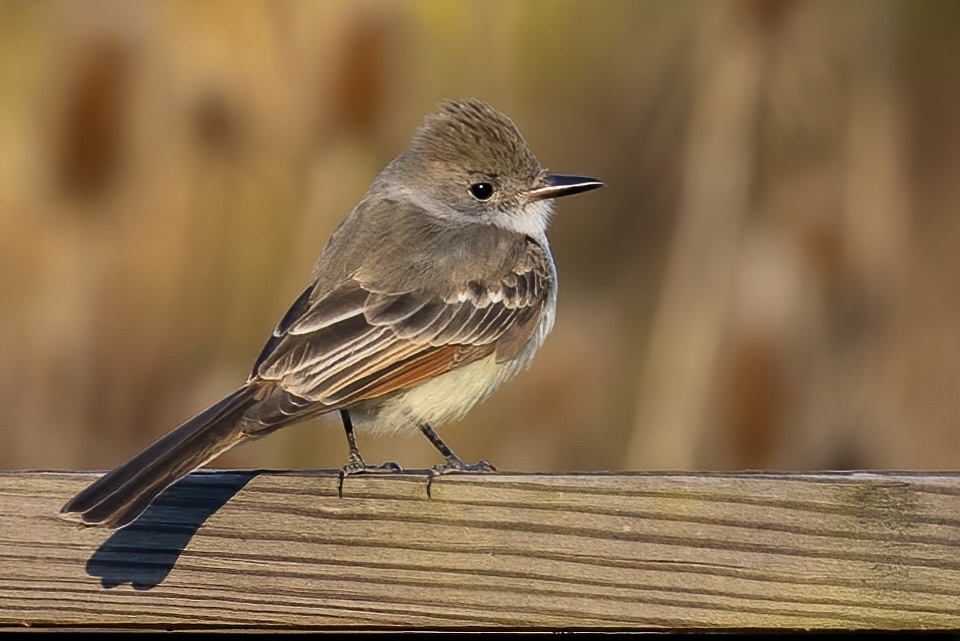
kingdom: Animalia
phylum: Chordata
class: Aves
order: Passeriformes
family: Tyrannidae
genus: Myiarchus
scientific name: Myiarchus cinerascens
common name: Ash-throated flycatcher
